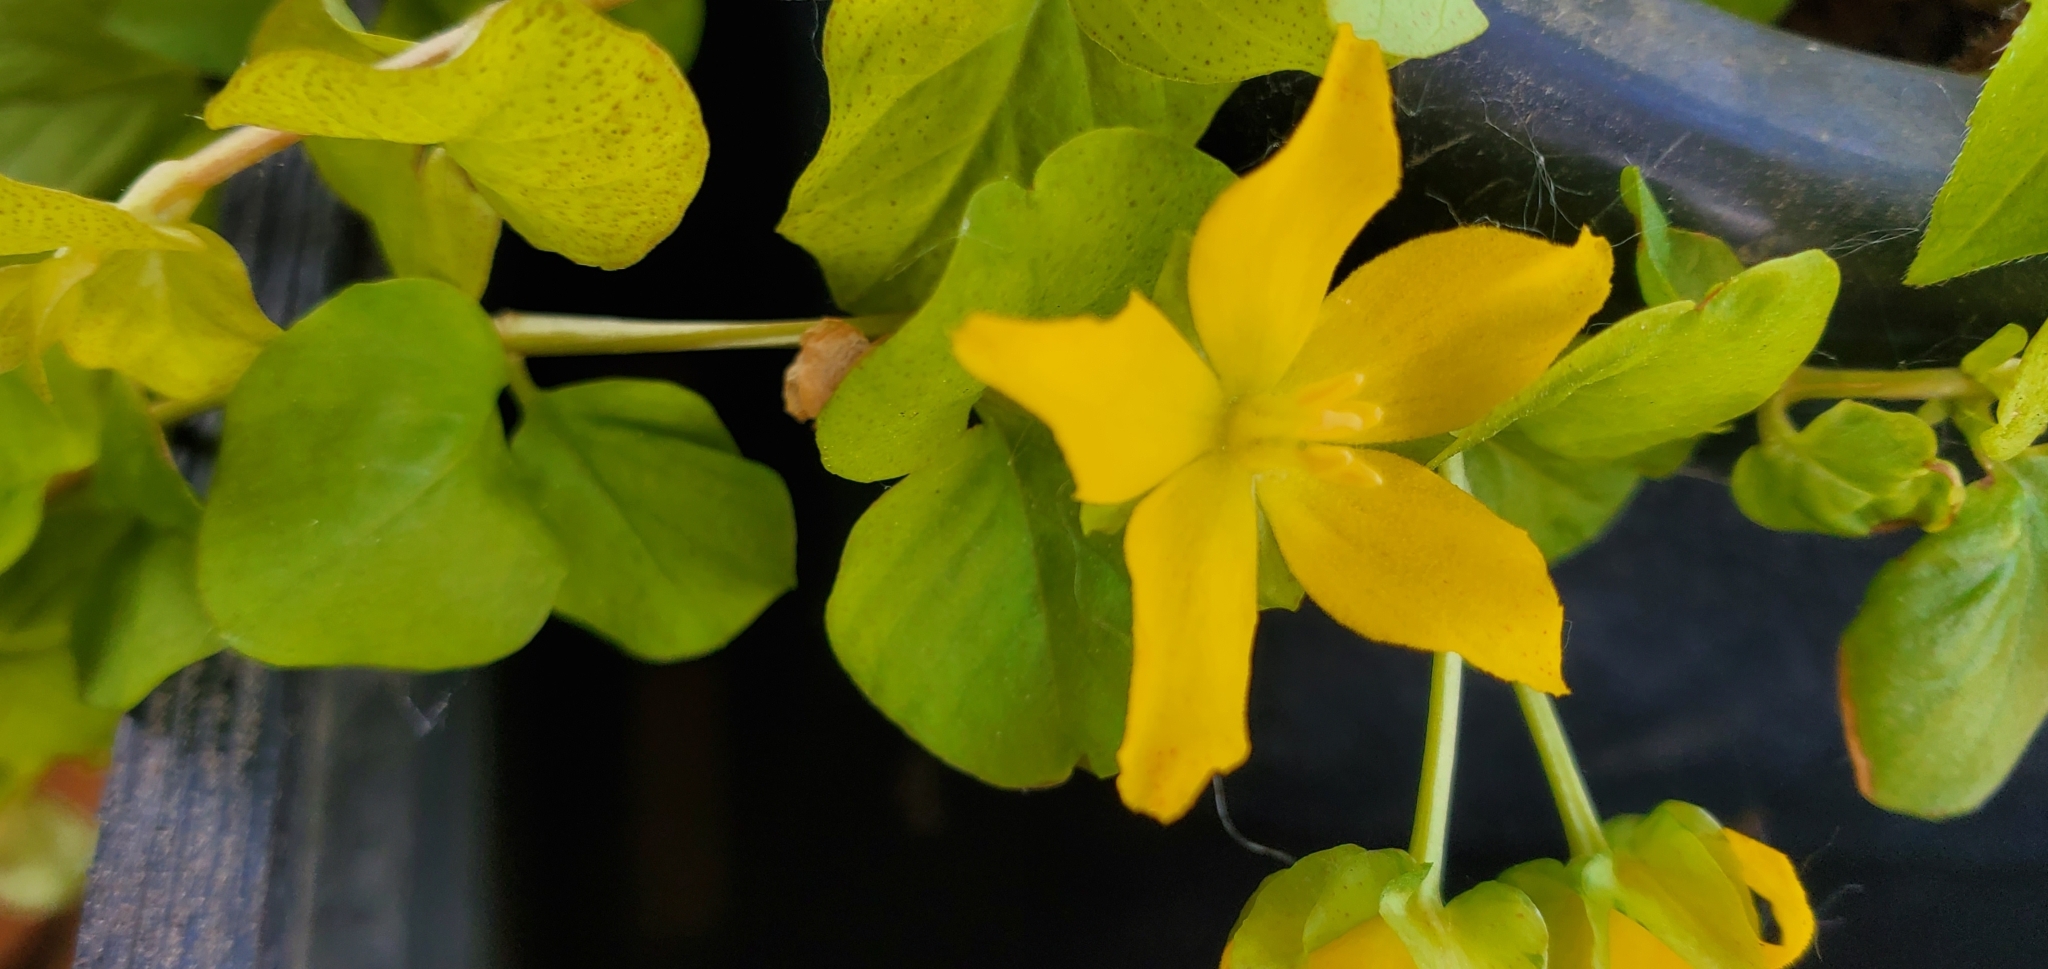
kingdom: Plantae
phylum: Tracheophyta
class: Magnoliopsida
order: Ericales
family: Primulaceae
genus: Lysimachia
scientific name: Lysimachia nummularia
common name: Moneywort
